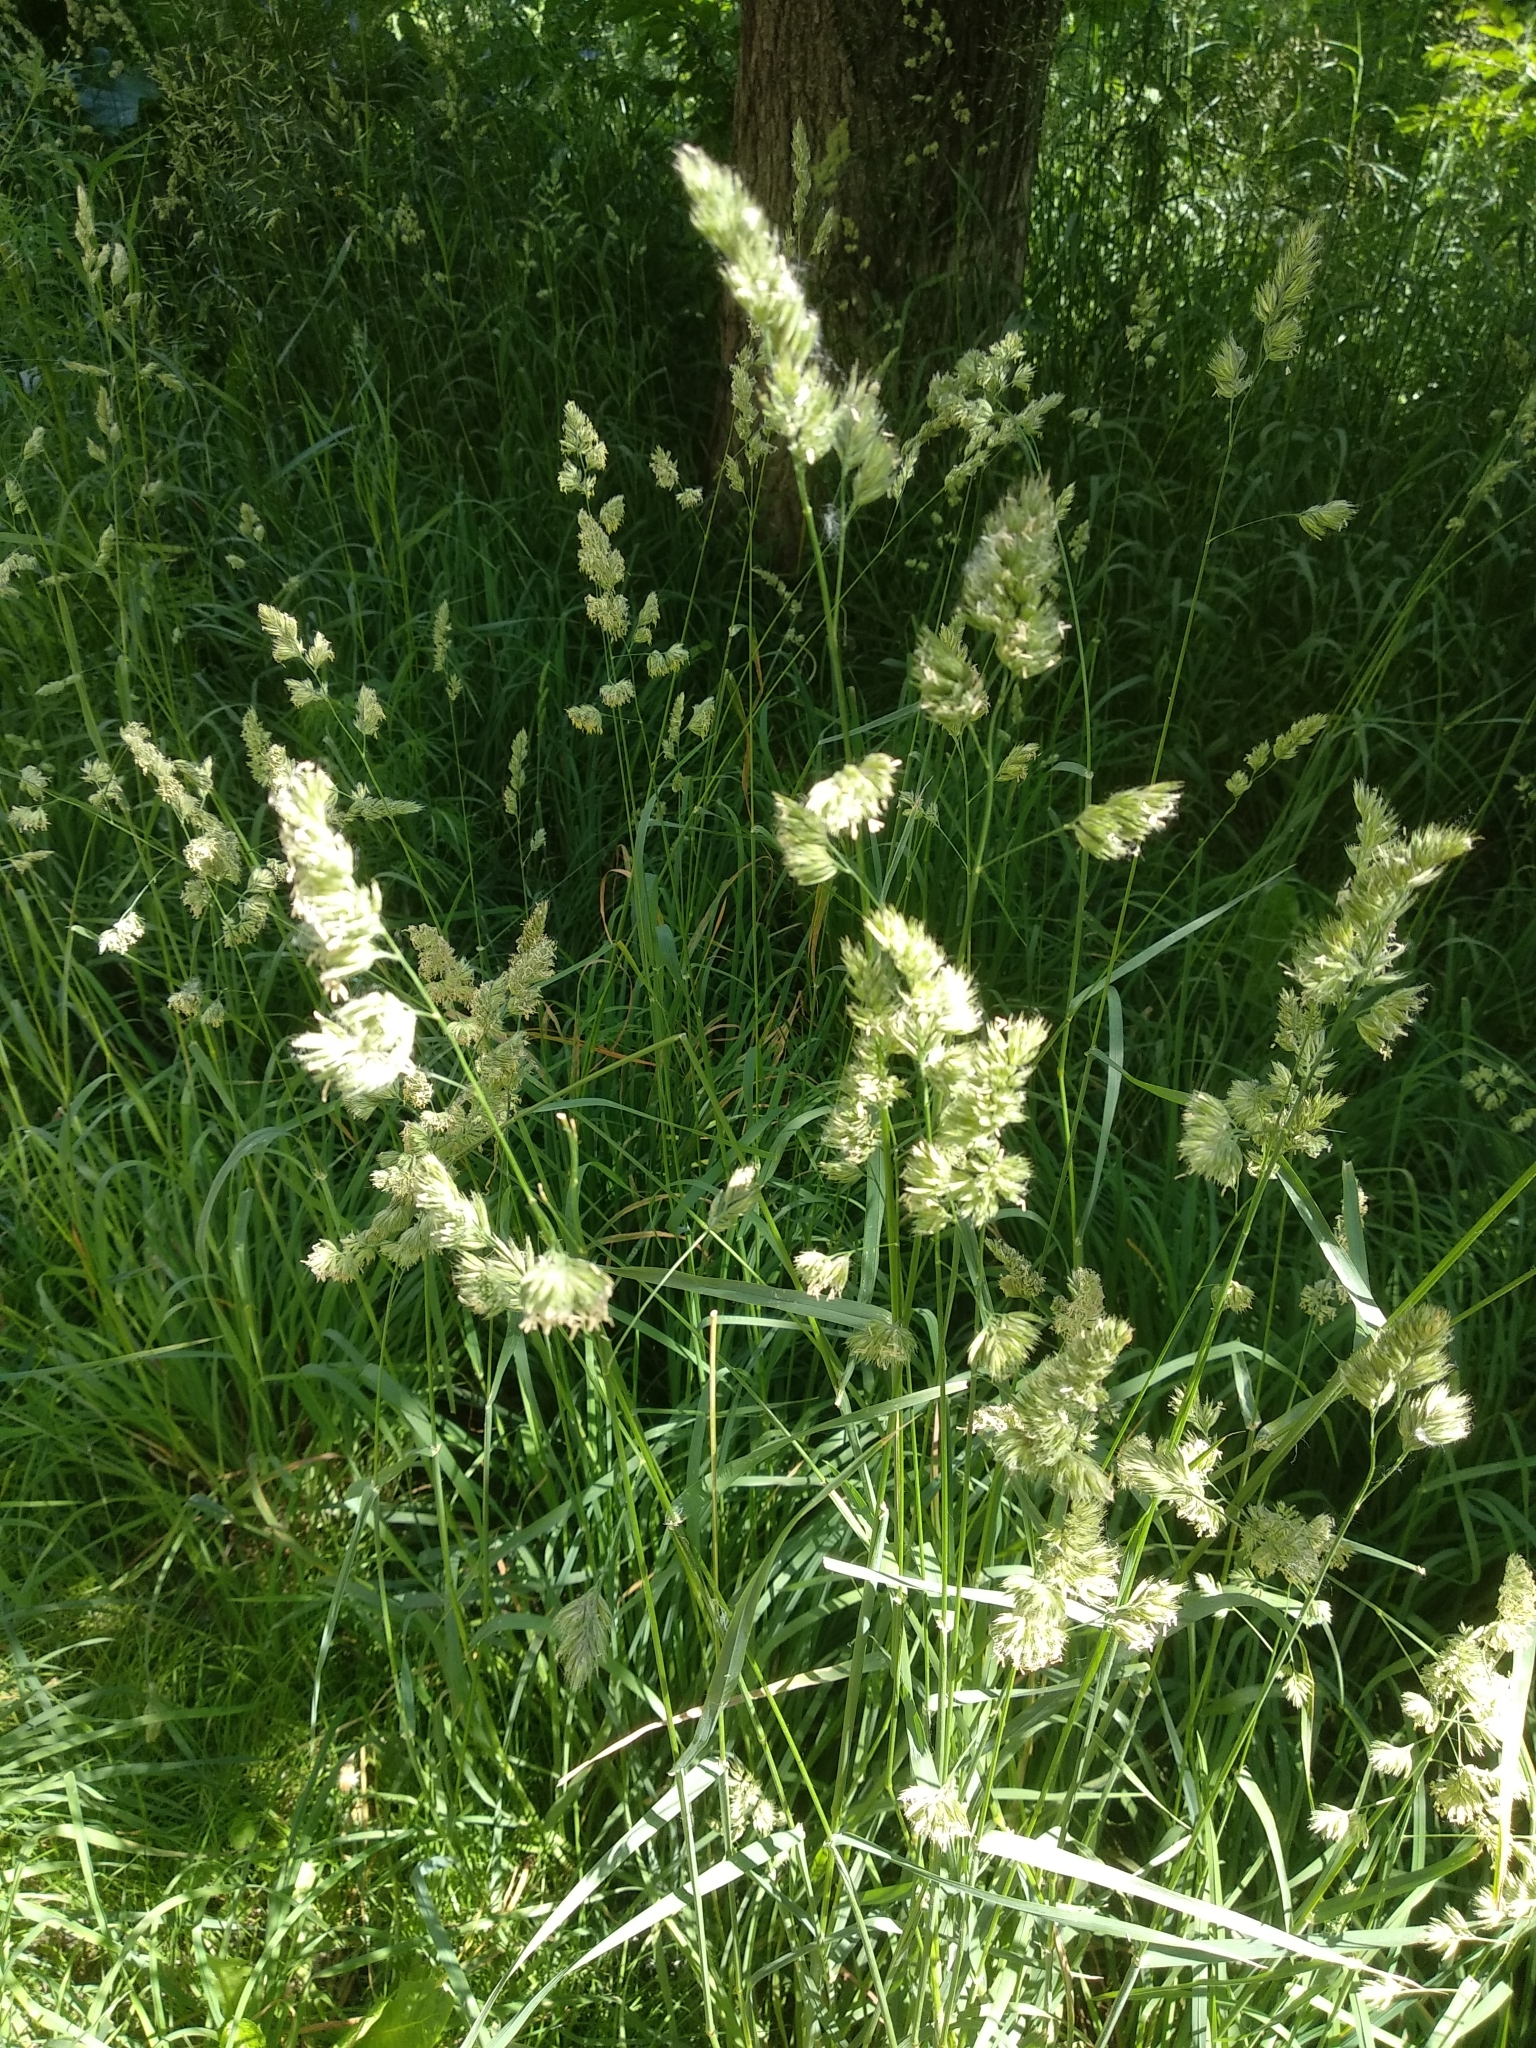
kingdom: Plantae
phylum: Tracheophyta
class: Liliopsida
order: Poales
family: Poaceae
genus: Dactylis
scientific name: Dactylis glomerata
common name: Orchardgrass
